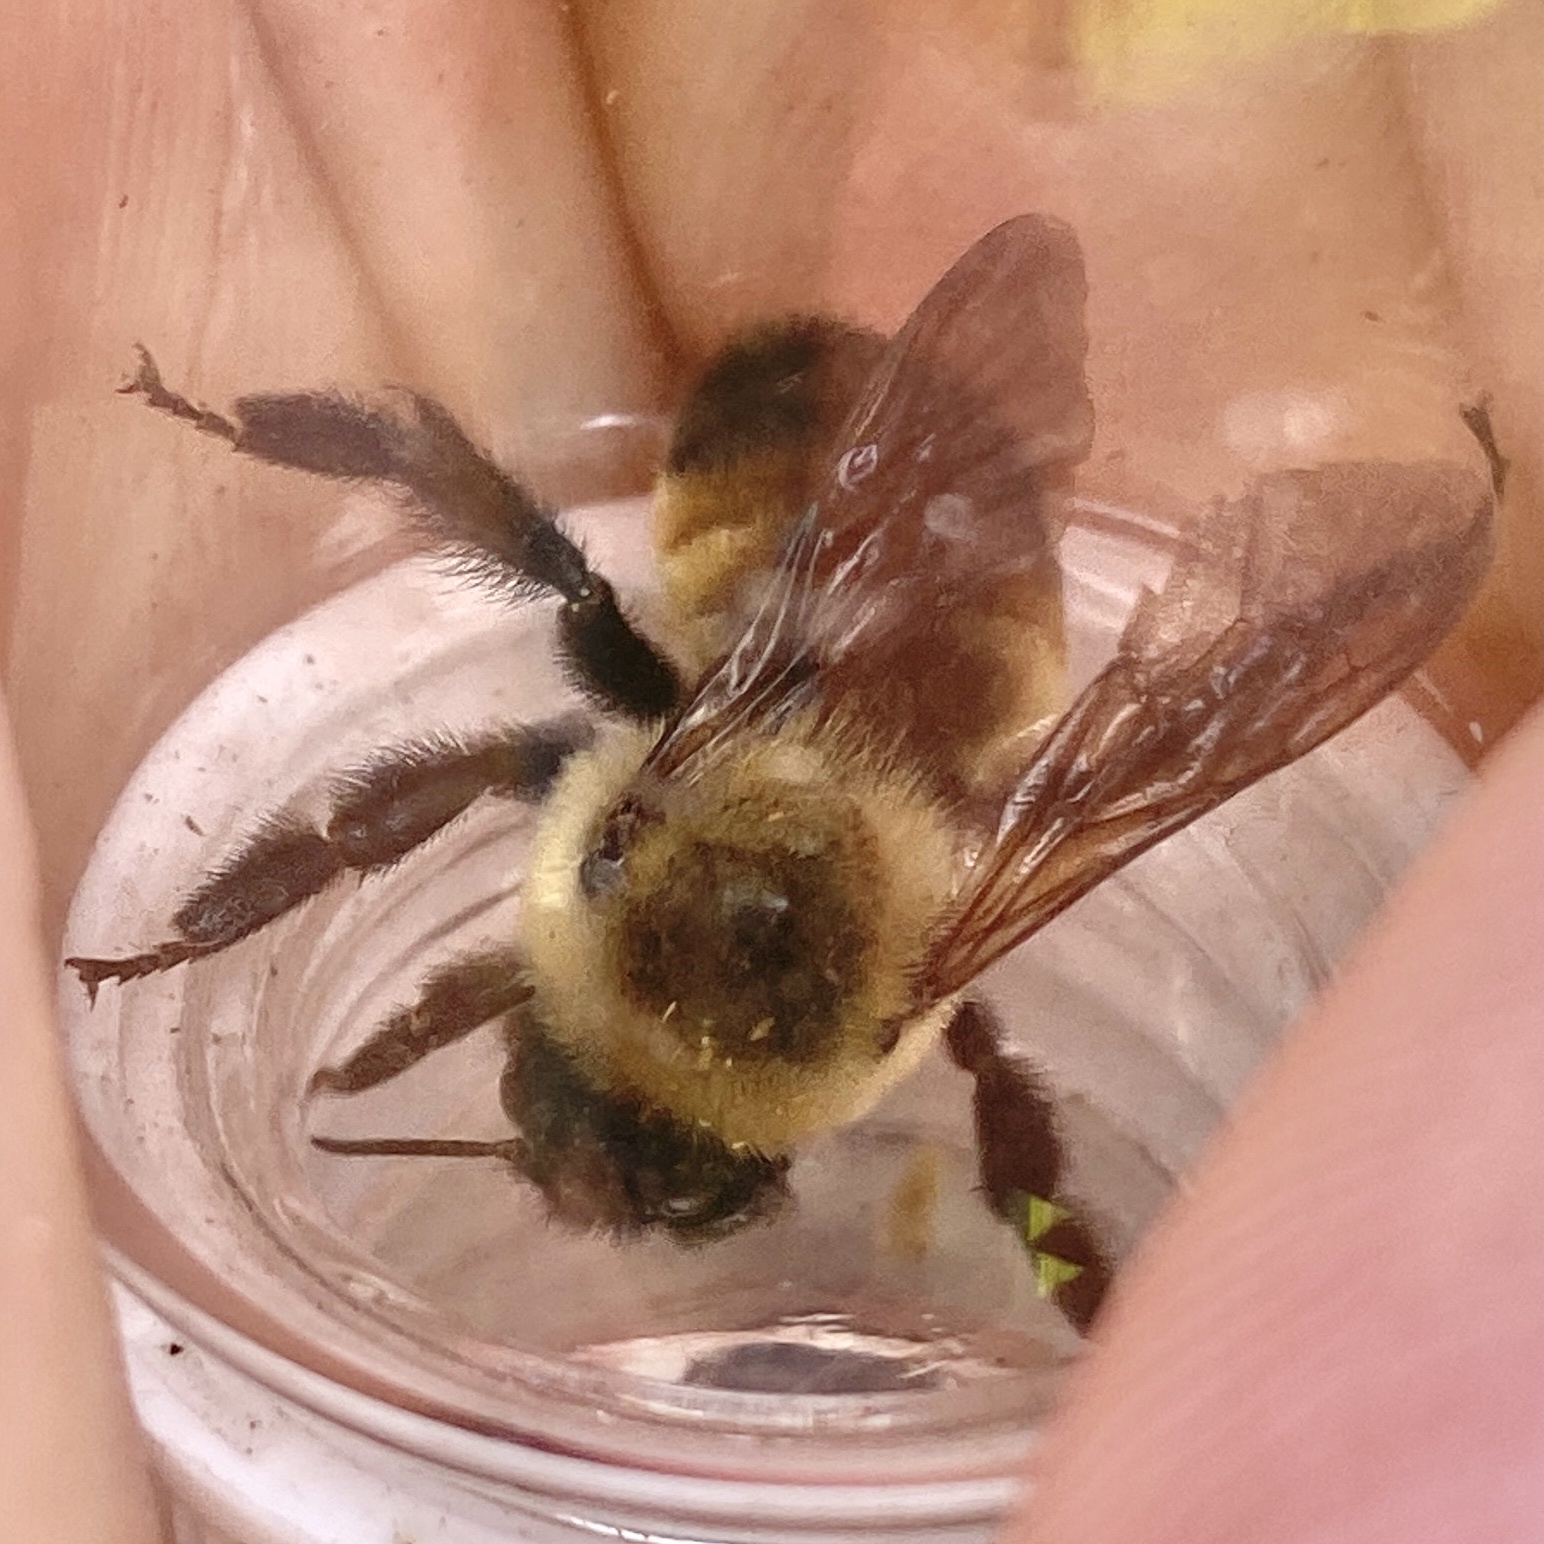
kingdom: Animalia
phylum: Arthropoda
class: Insecta
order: Hymenoptera
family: Apidae
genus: Bombus
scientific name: Bombus griseocollis
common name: Brown-belted bumble bee
